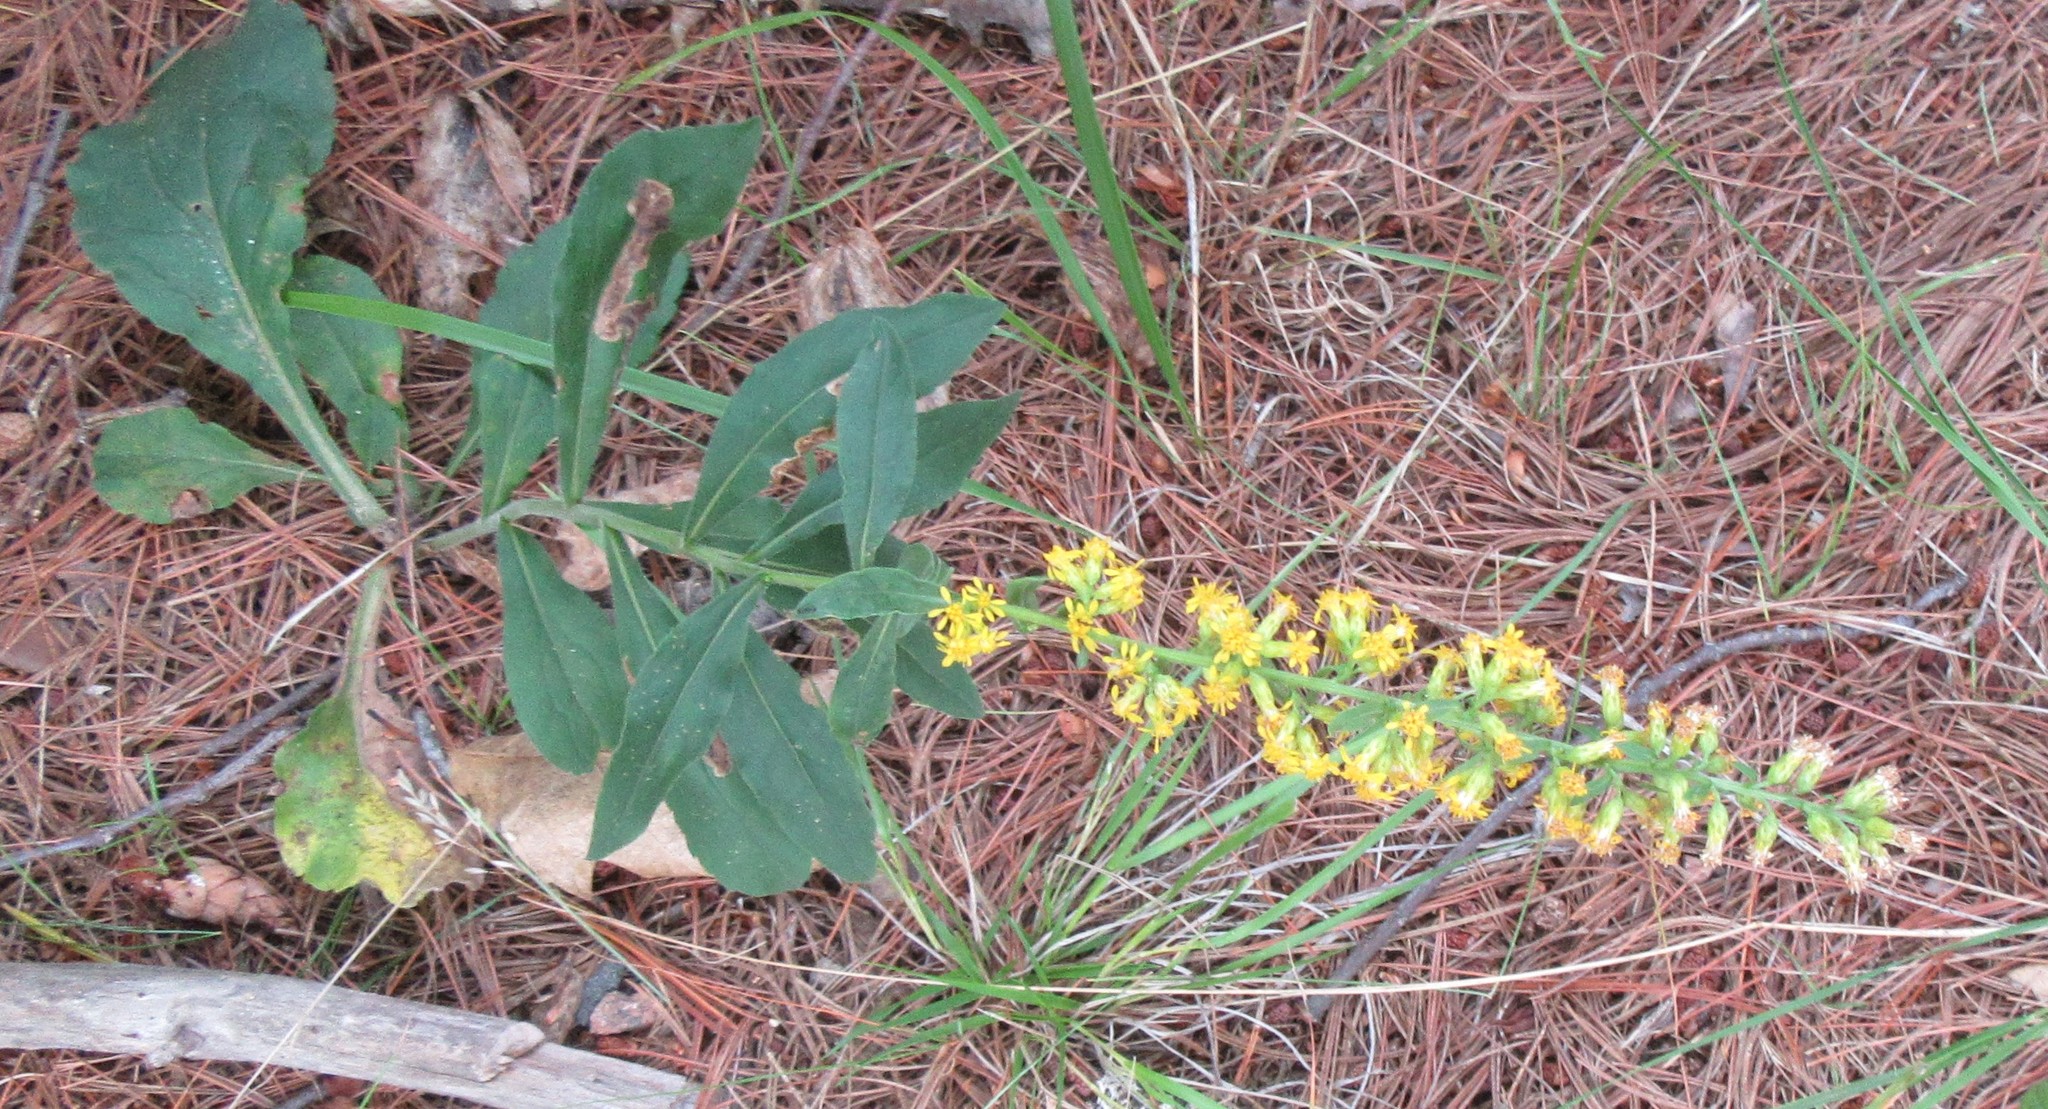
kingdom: Plantae
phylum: Tracheophyta
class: Magnoliopsida
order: Asterales
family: Asteraceae
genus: Solidago
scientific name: Solidago hispida
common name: Hairy goldenrod
